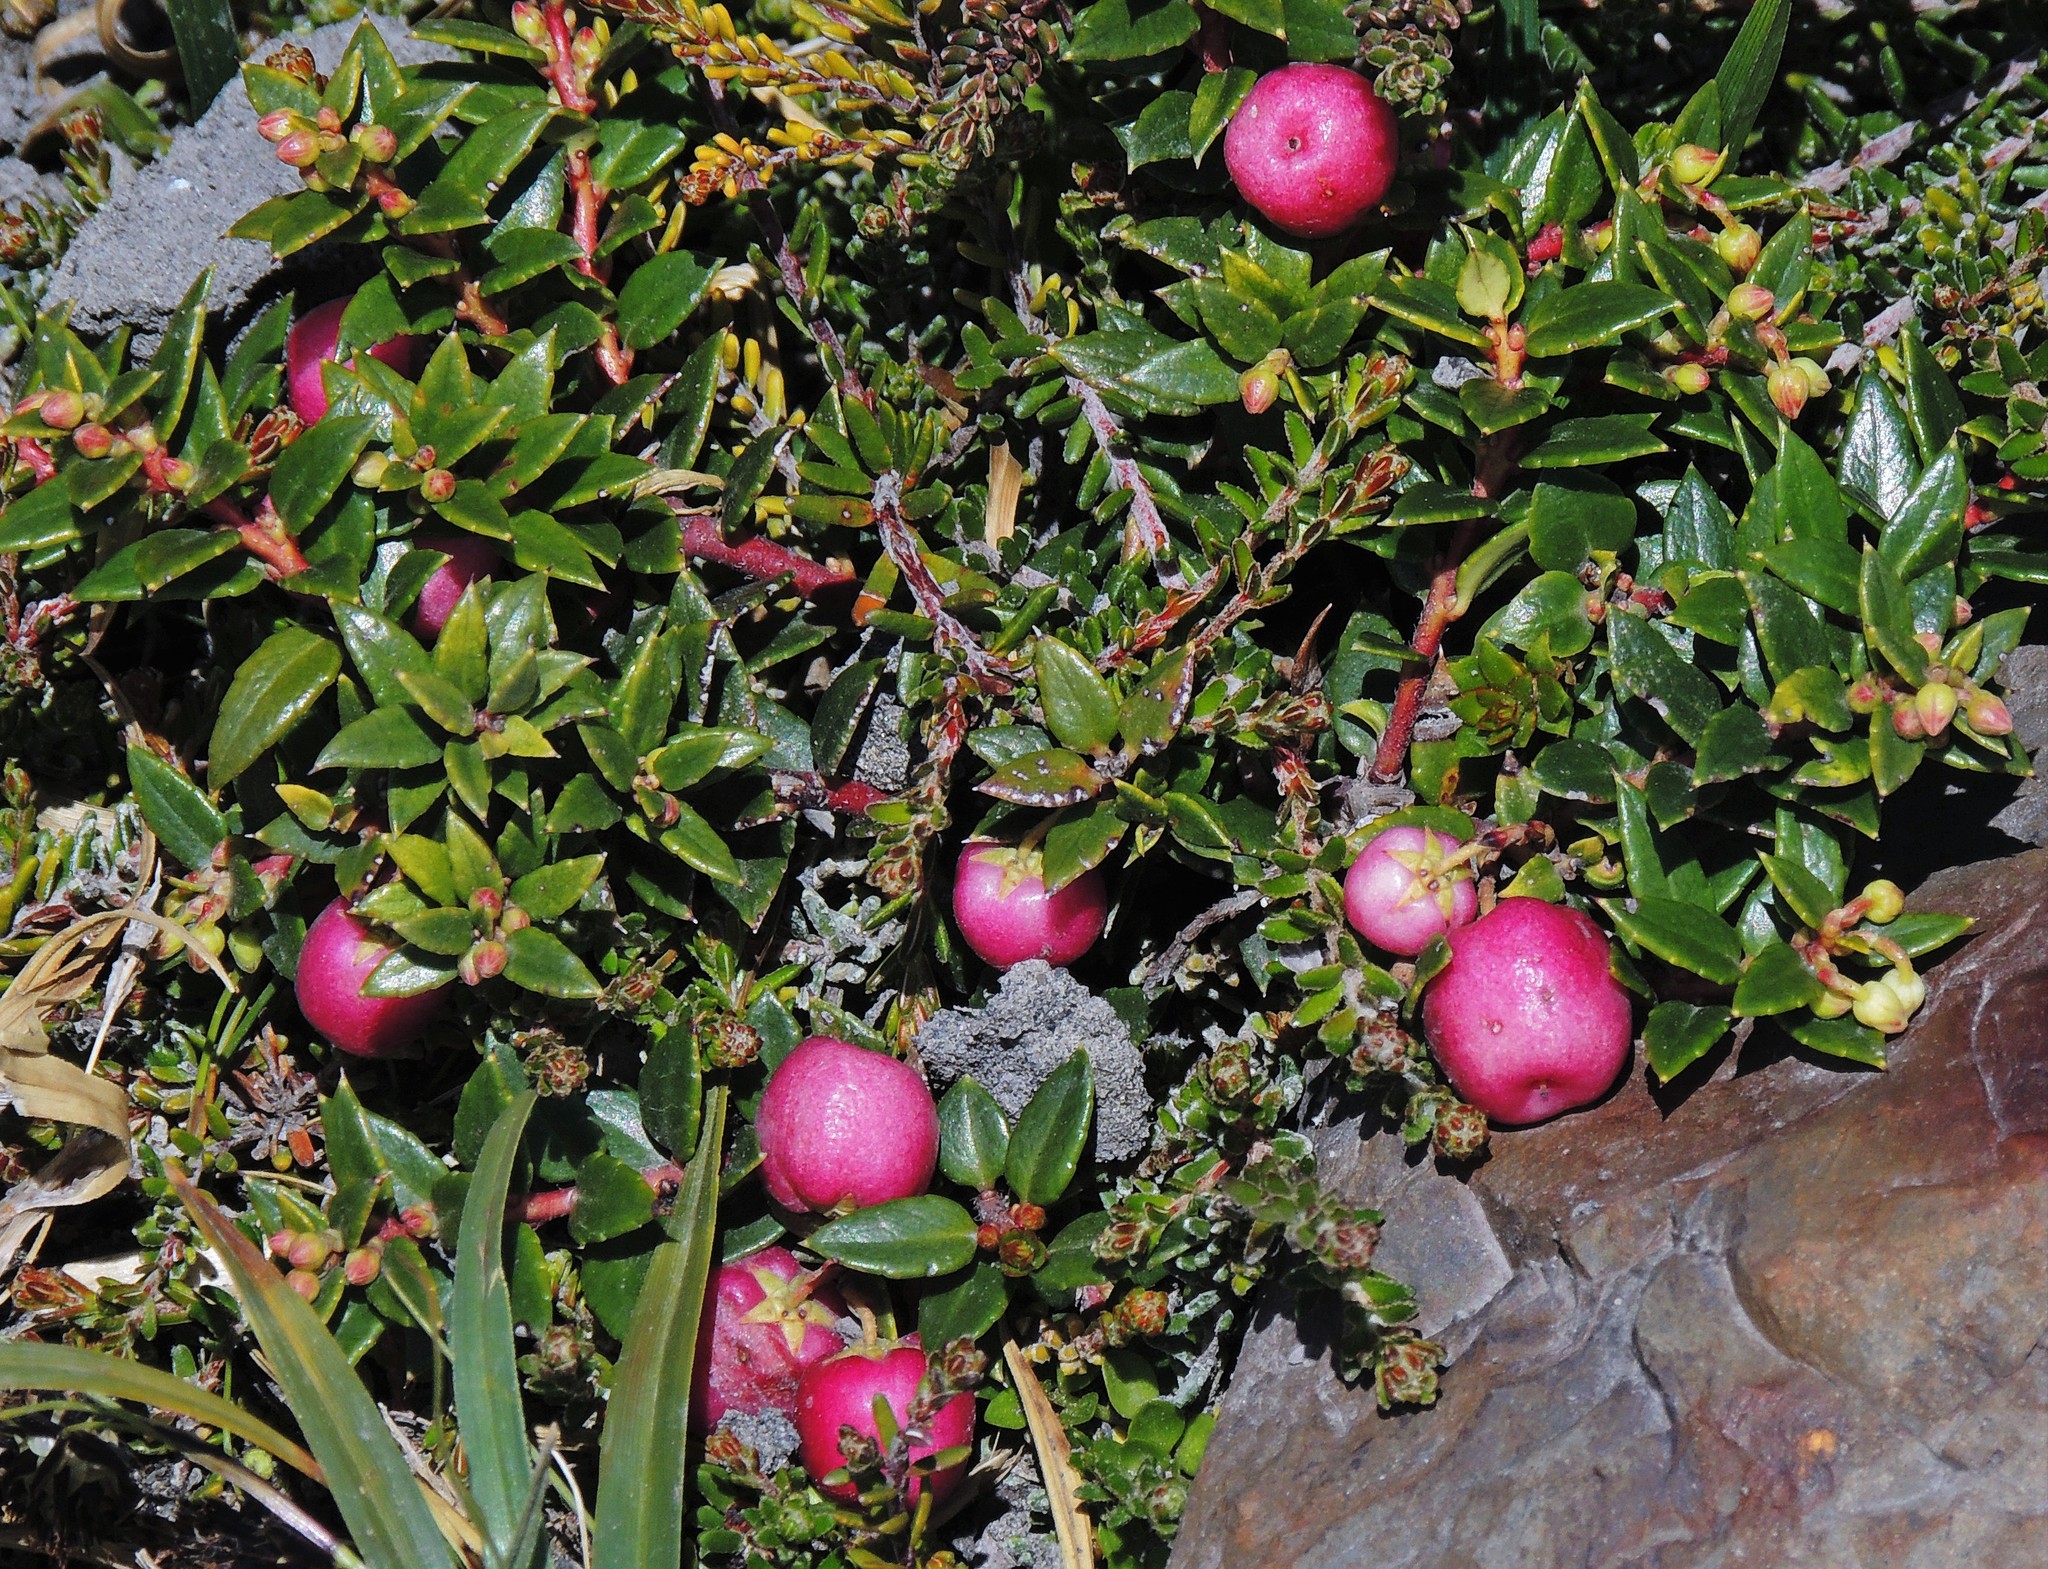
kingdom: Plantae
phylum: Tracheophyta
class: Magnoliopsida
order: Ericales
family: Ericaceae
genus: Gaultheria
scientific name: Gaultheria mucronata
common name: Prickly heath
